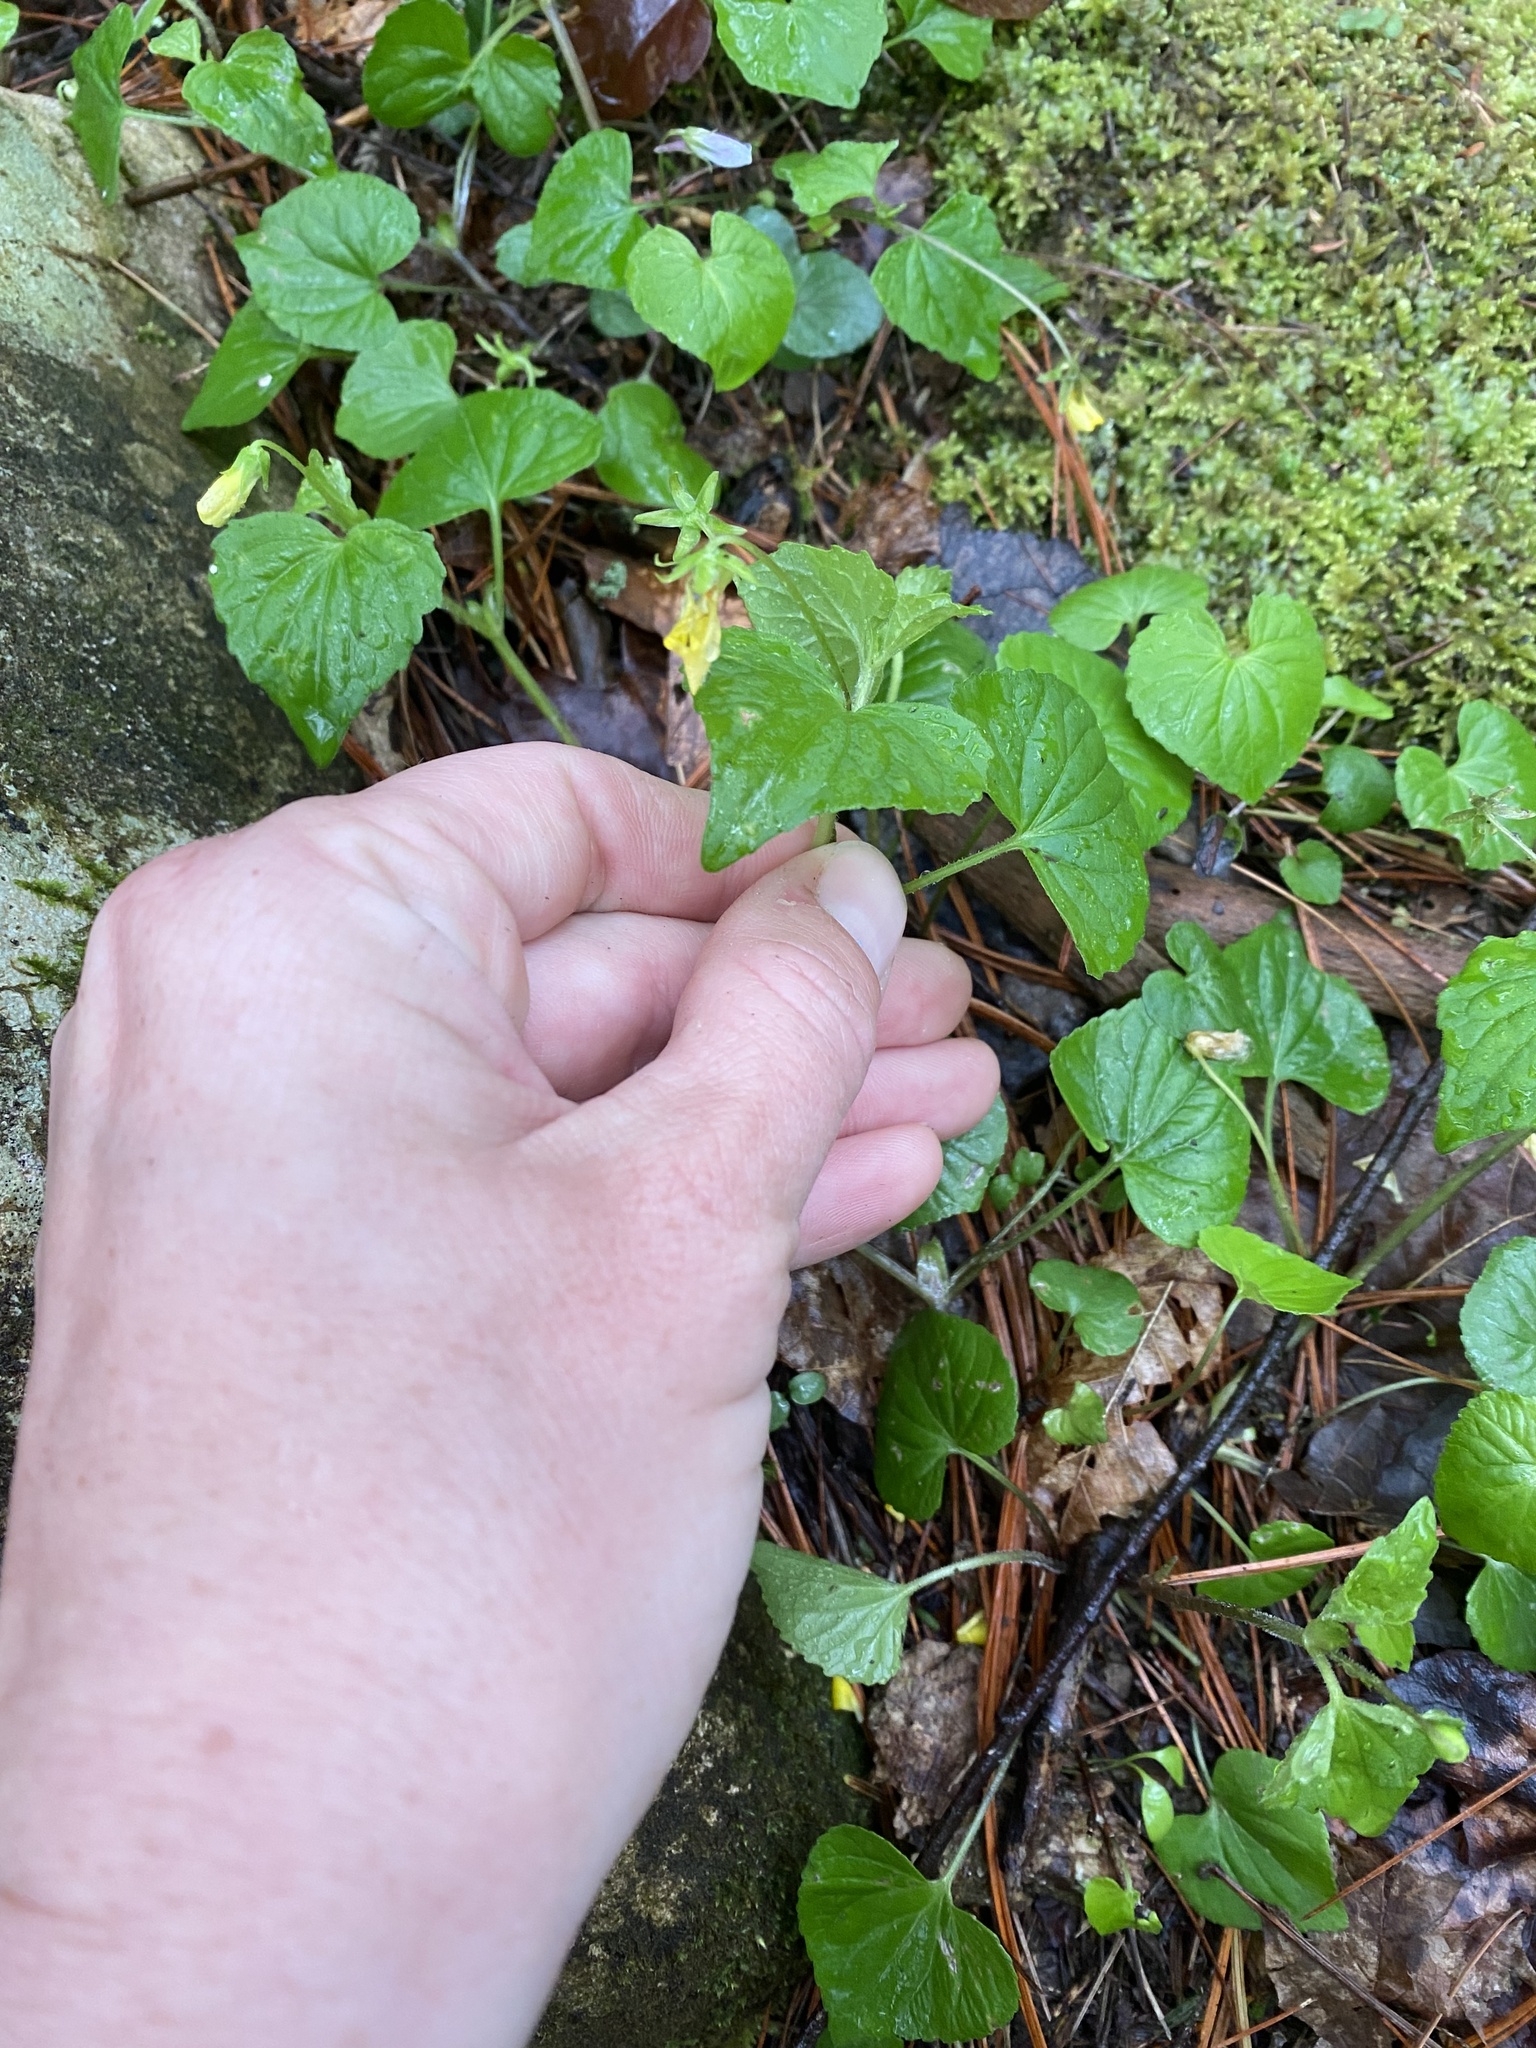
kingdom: Plantae
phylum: Tracheophyta
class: Magnoliopsida
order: Malpighiales
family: Violaceae
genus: Viola
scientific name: Viola eriocarpa
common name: Smooth yellow violet
